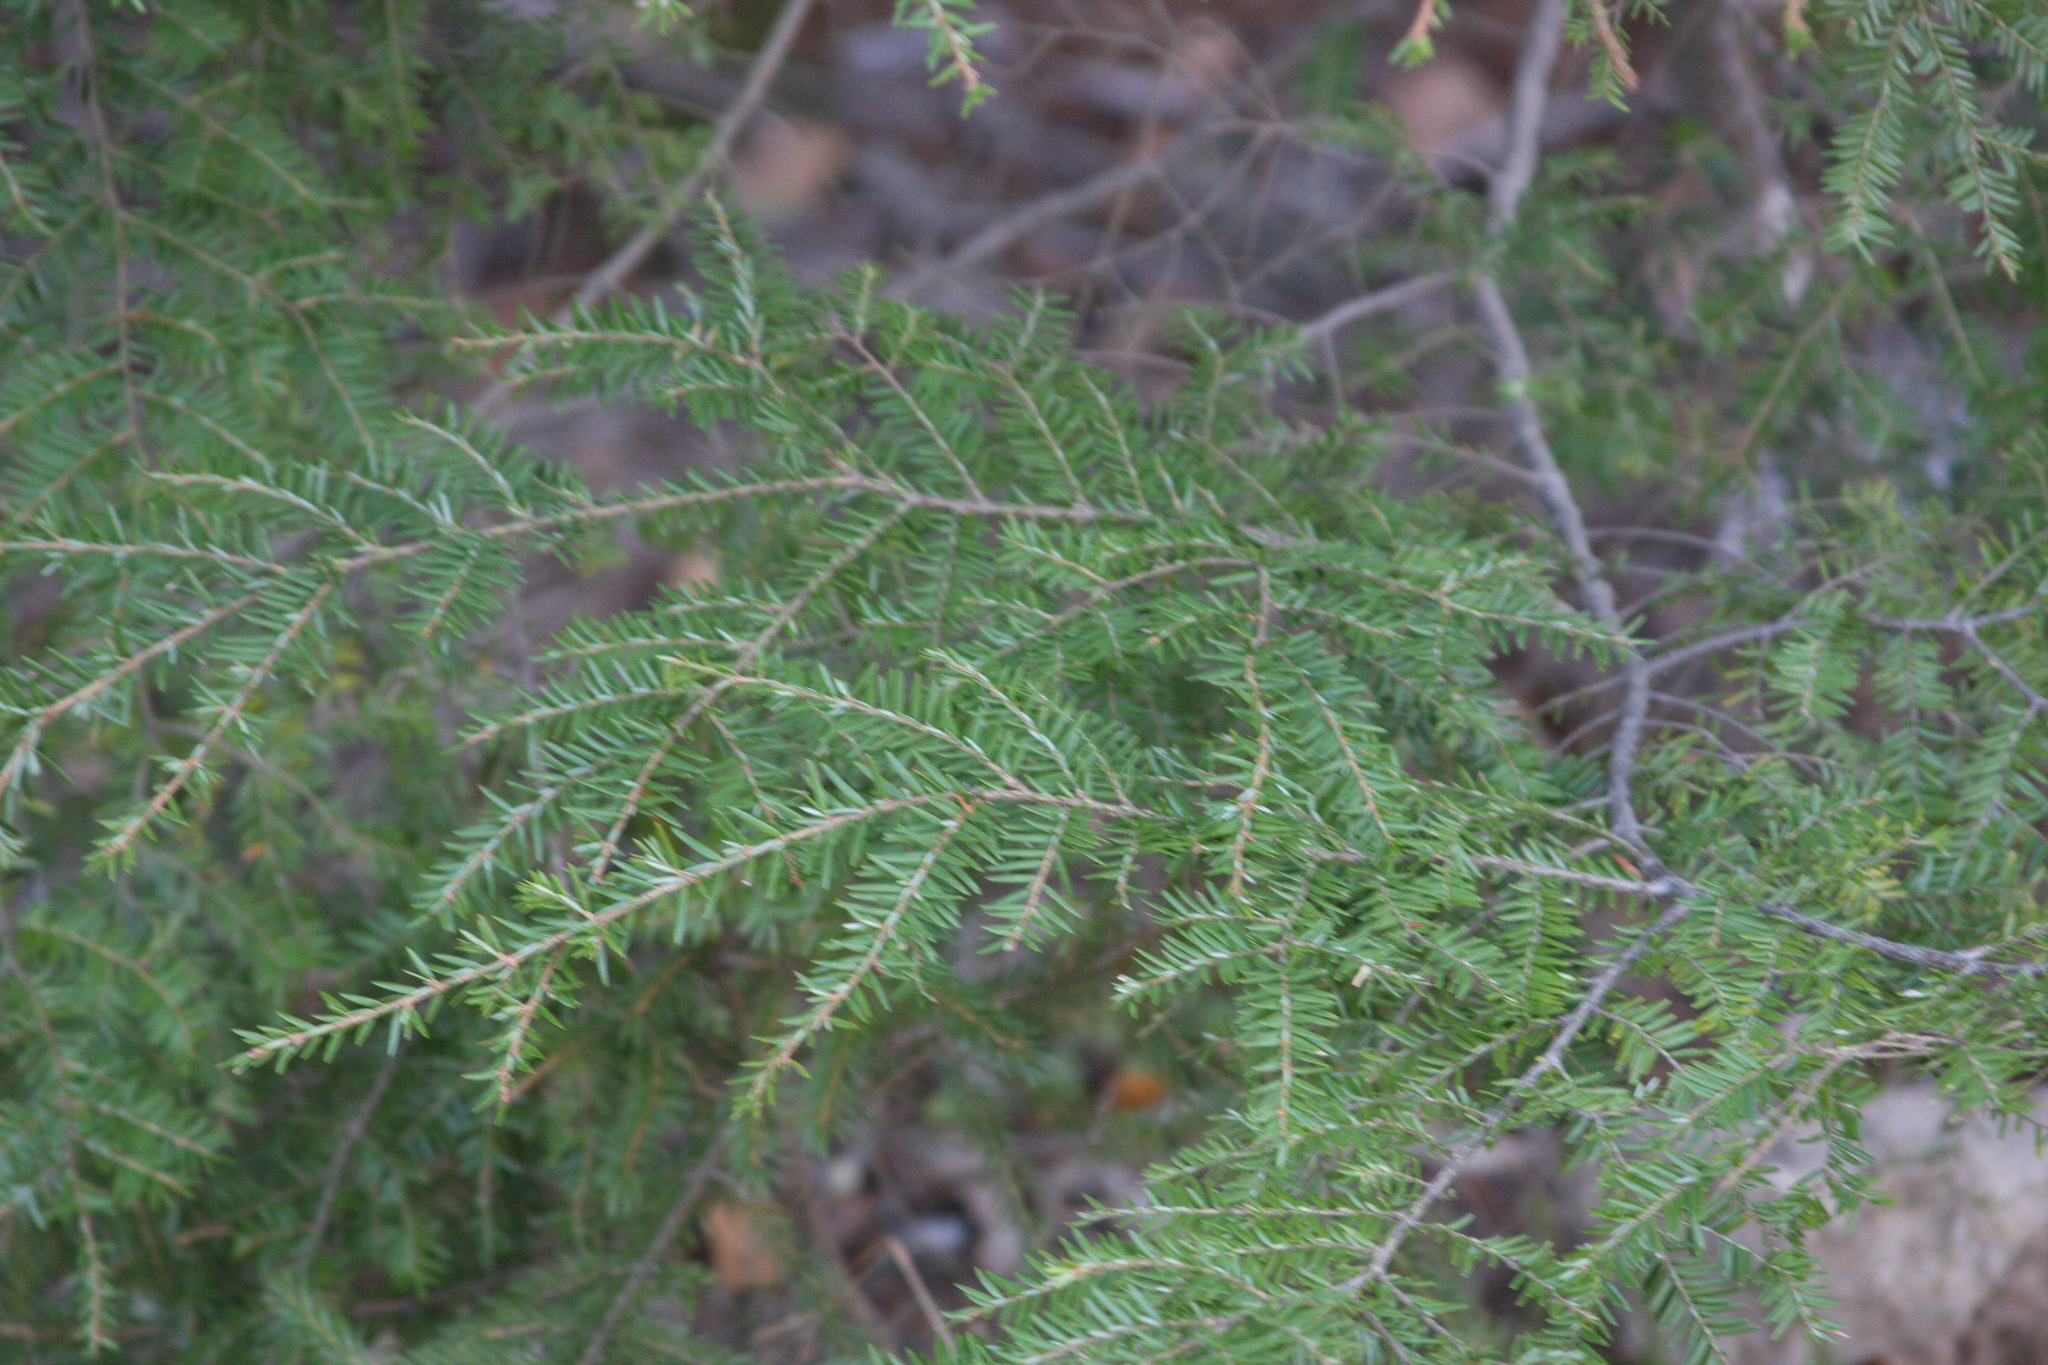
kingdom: Plantae
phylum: Tracheophyta
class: Pinopsida
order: Pinales
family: Pinaceae
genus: Tsuga
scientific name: Tsuga canadensis
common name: Eastern hemlock
